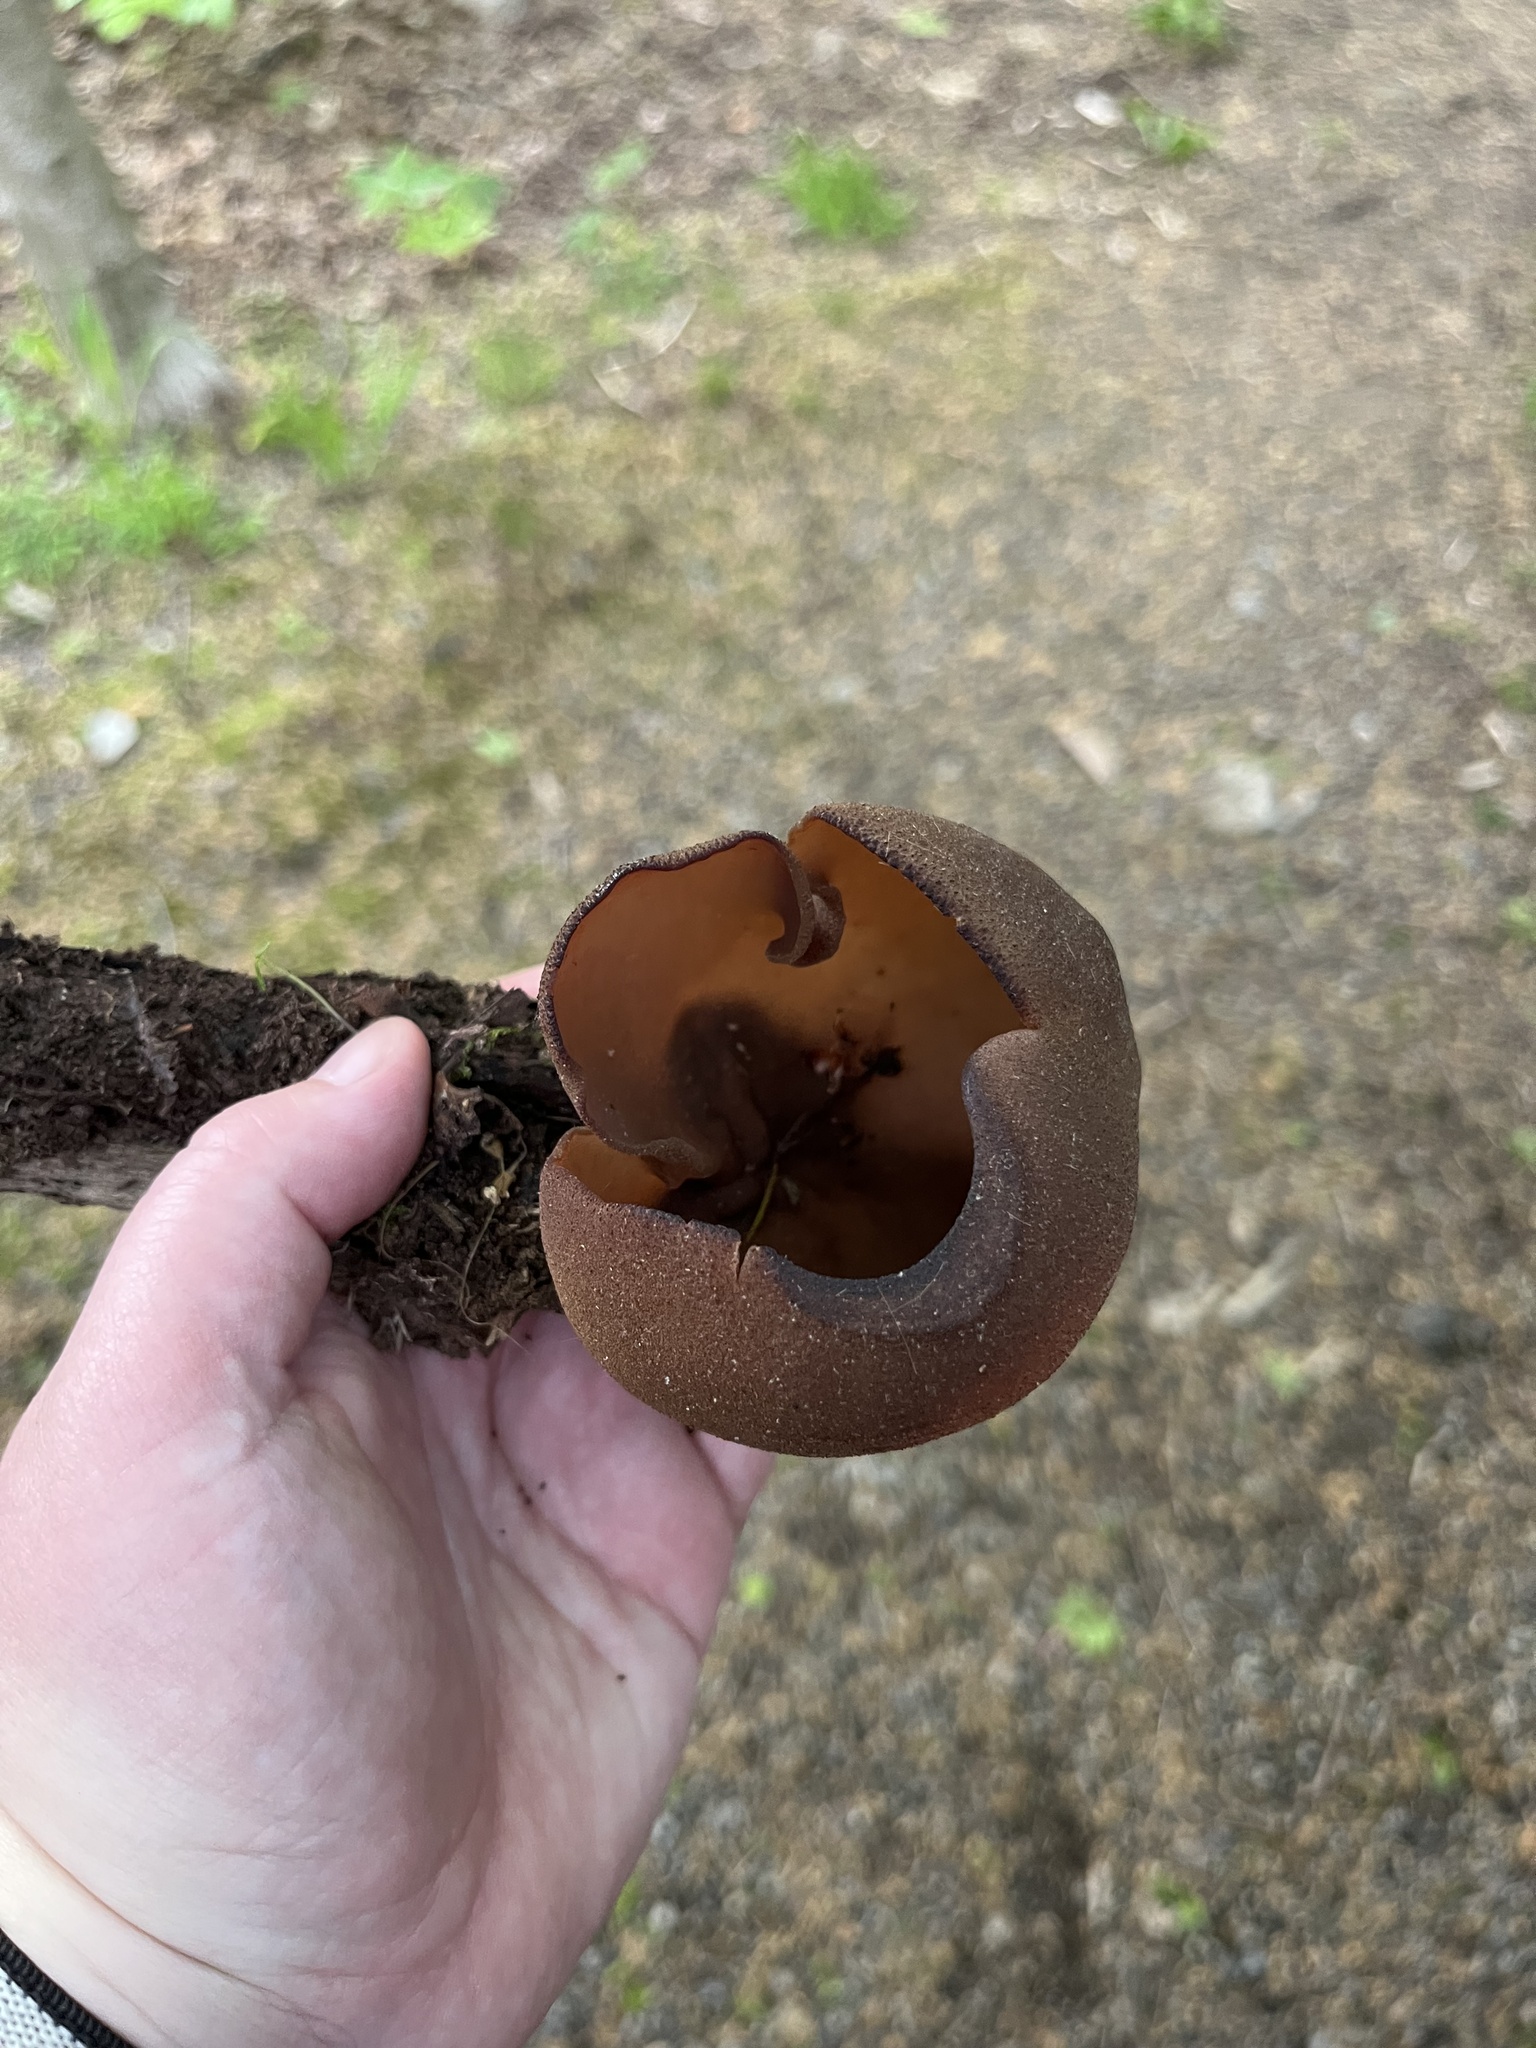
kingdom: Fungi
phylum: Ascomycota
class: Pezizomycetes
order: Pezizales
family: Pezizaceae
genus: Phylloscypha
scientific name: Phylloscypha phyllogena
